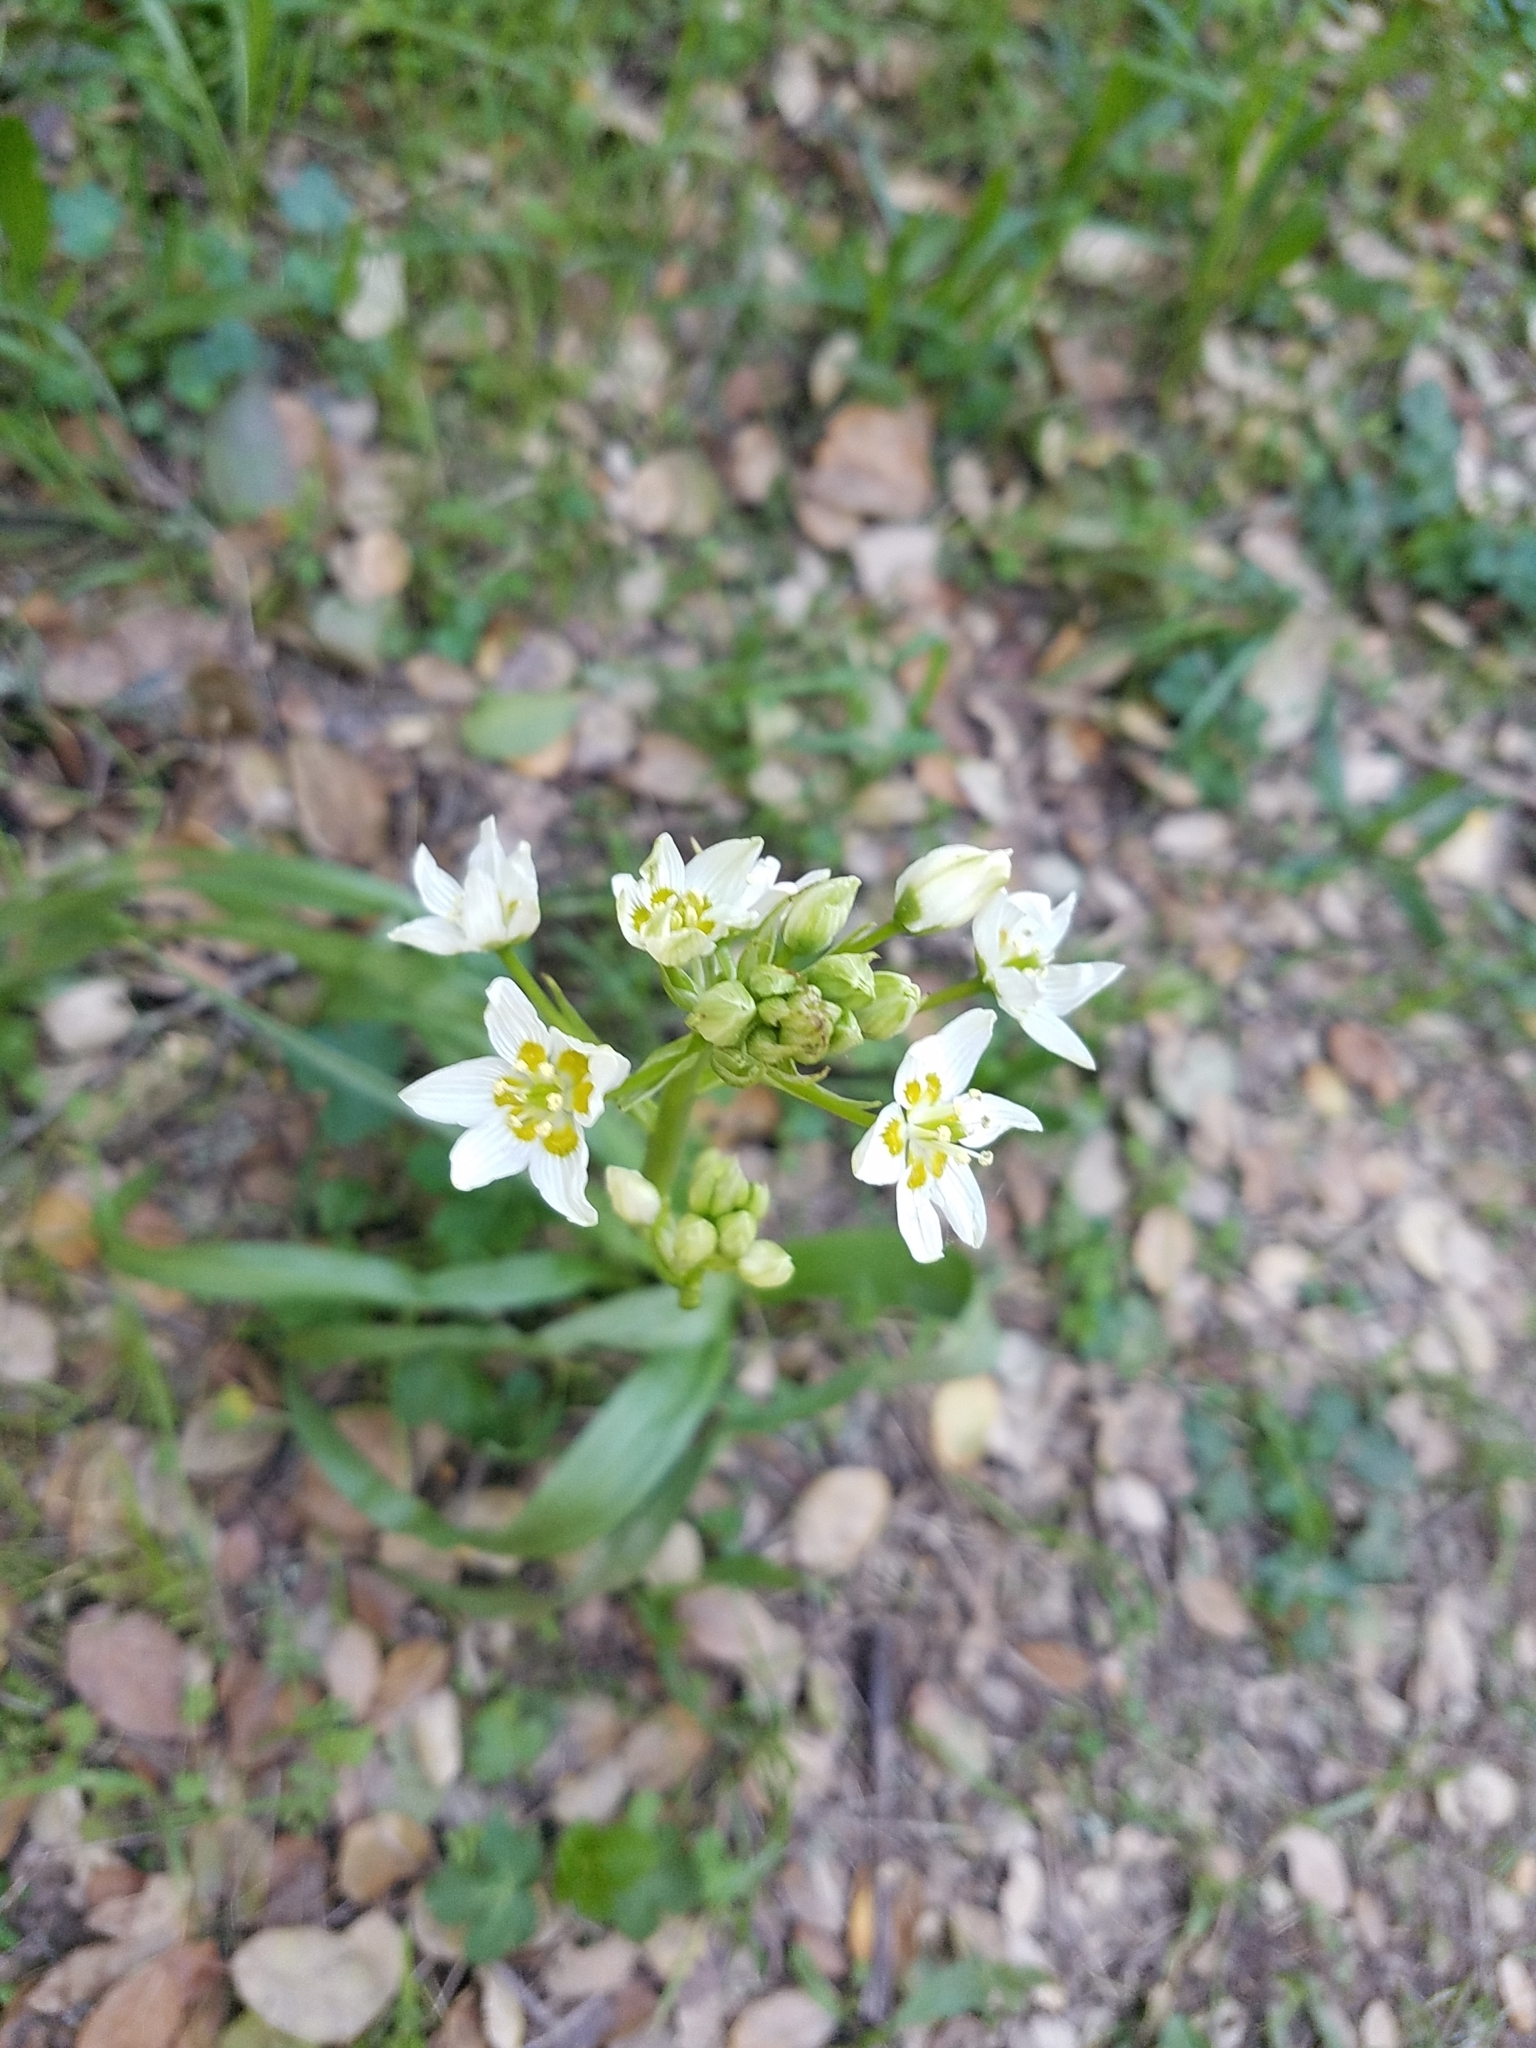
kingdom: Plantae
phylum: Tracheophyta
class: Liliopsida
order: Liliales
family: Melanthiaceae
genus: Toxicoscordion
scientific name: Toxicoscordion fremontii
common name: Fremont's death camas
